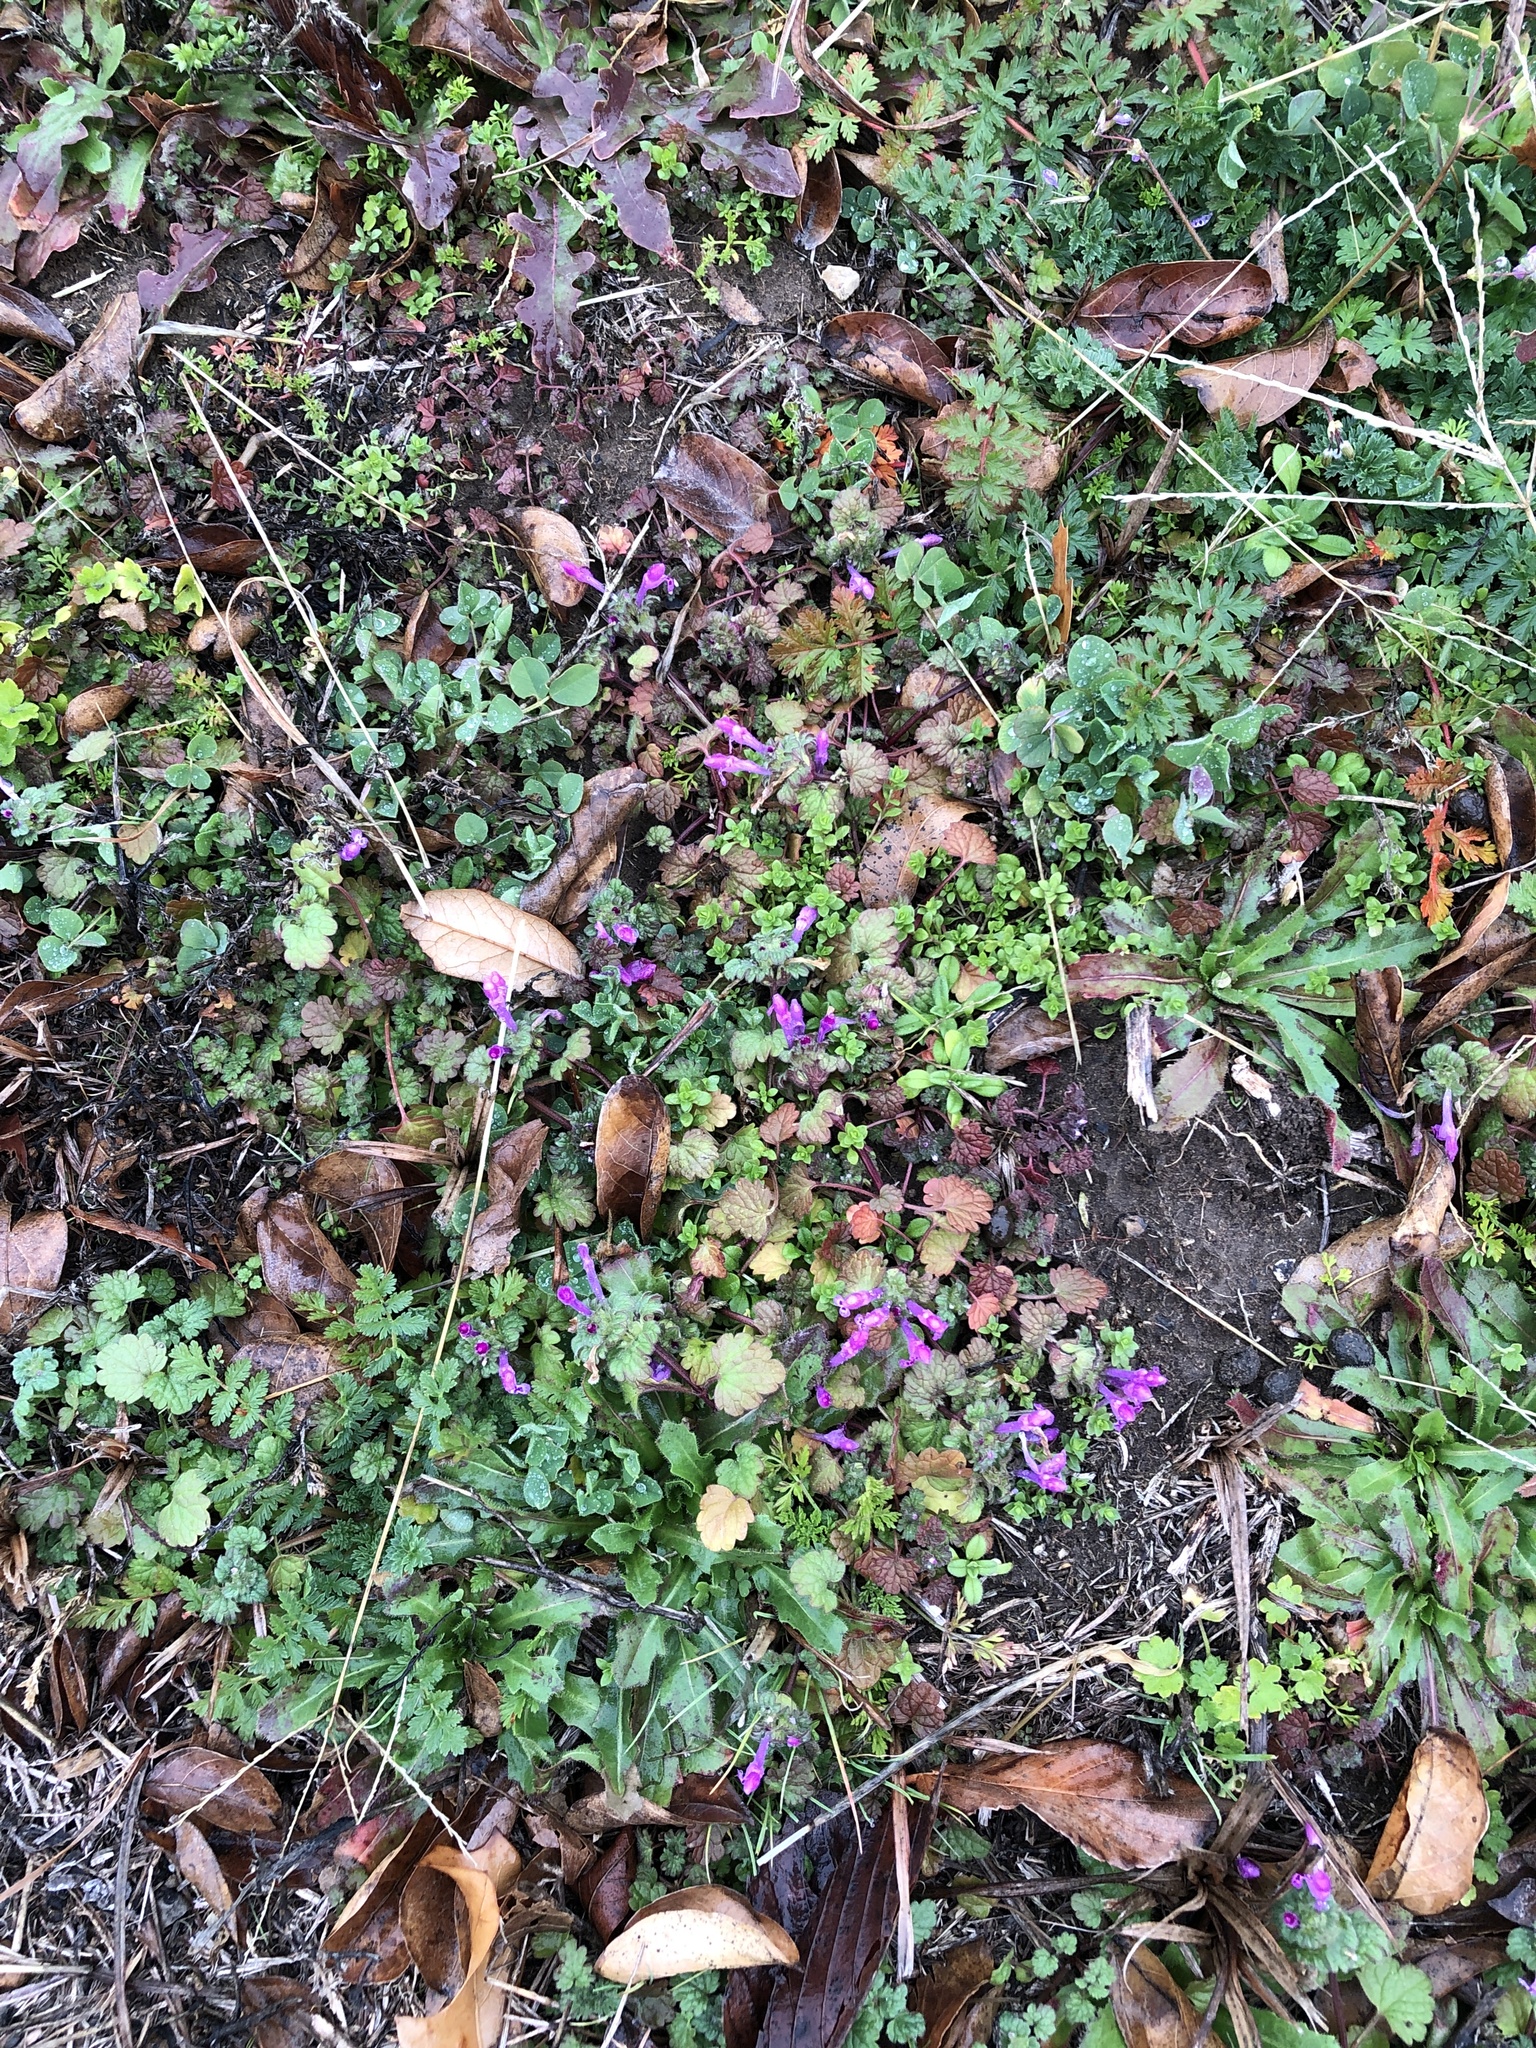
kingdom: Plantae
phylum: Tracheophyta
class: Magnoliopsida
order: Lamiales
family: Lamiaceae
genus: Lamium
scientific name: Lamium amplexicaule
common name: Henbit dead-nettle
